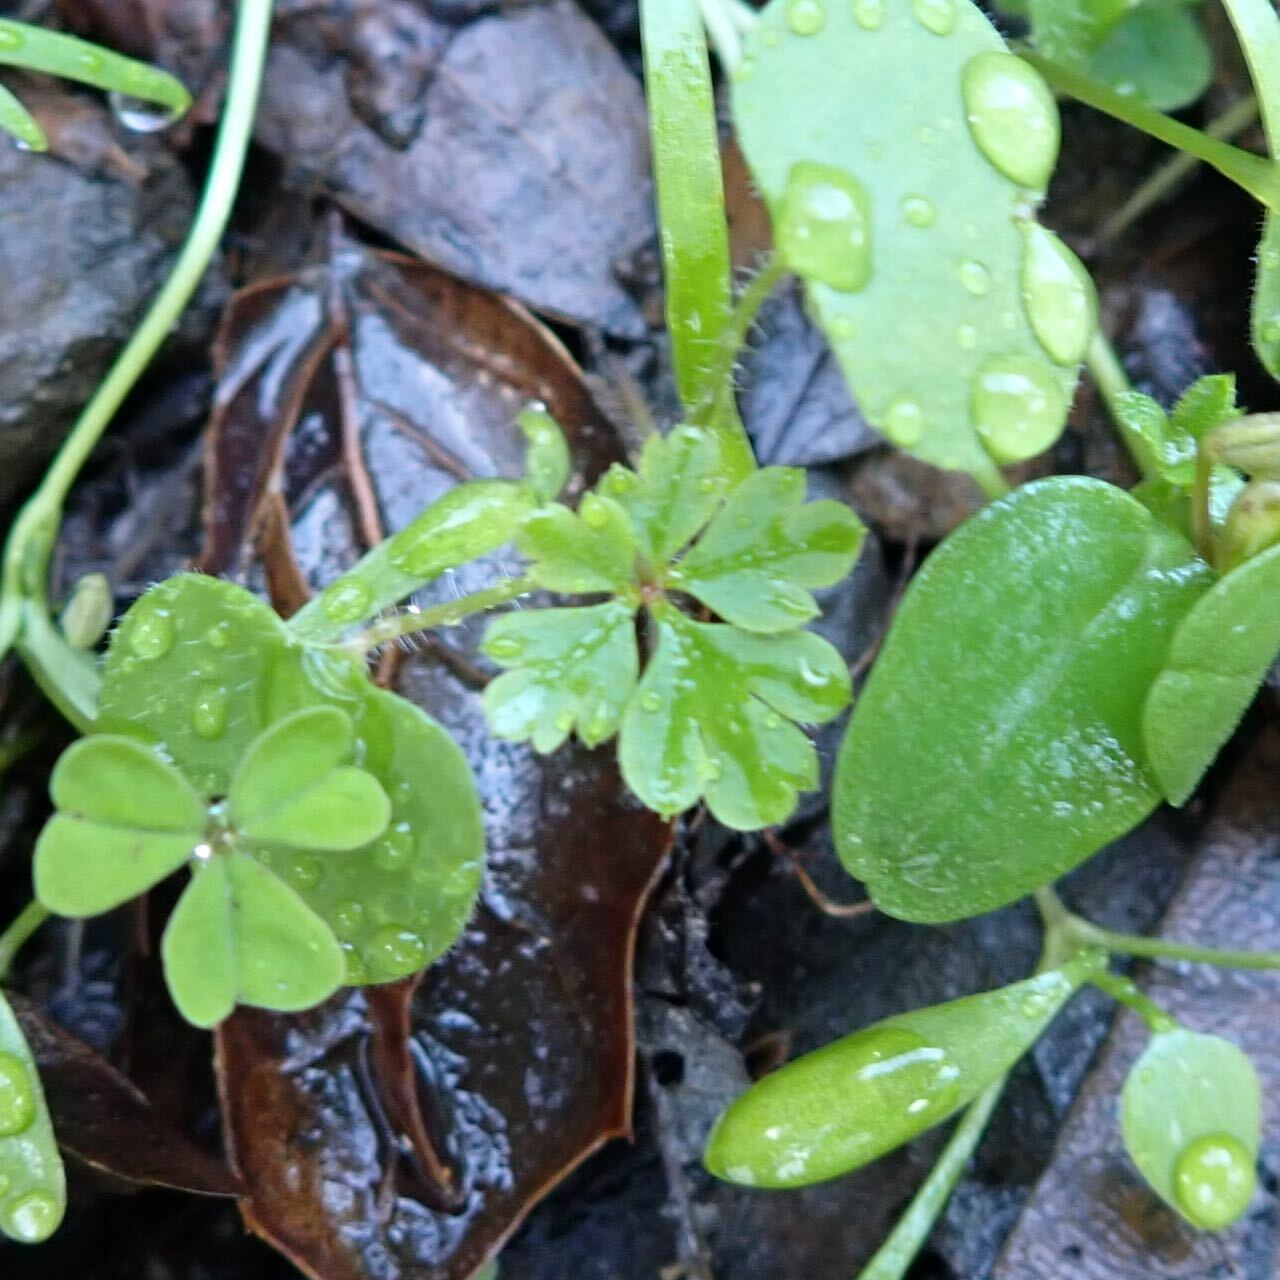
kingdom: Plantae
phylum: Tracheophyta
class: Magnoliopsida
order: Geraniales
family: Geraniaceae
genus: Geranium
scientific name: Geranium
